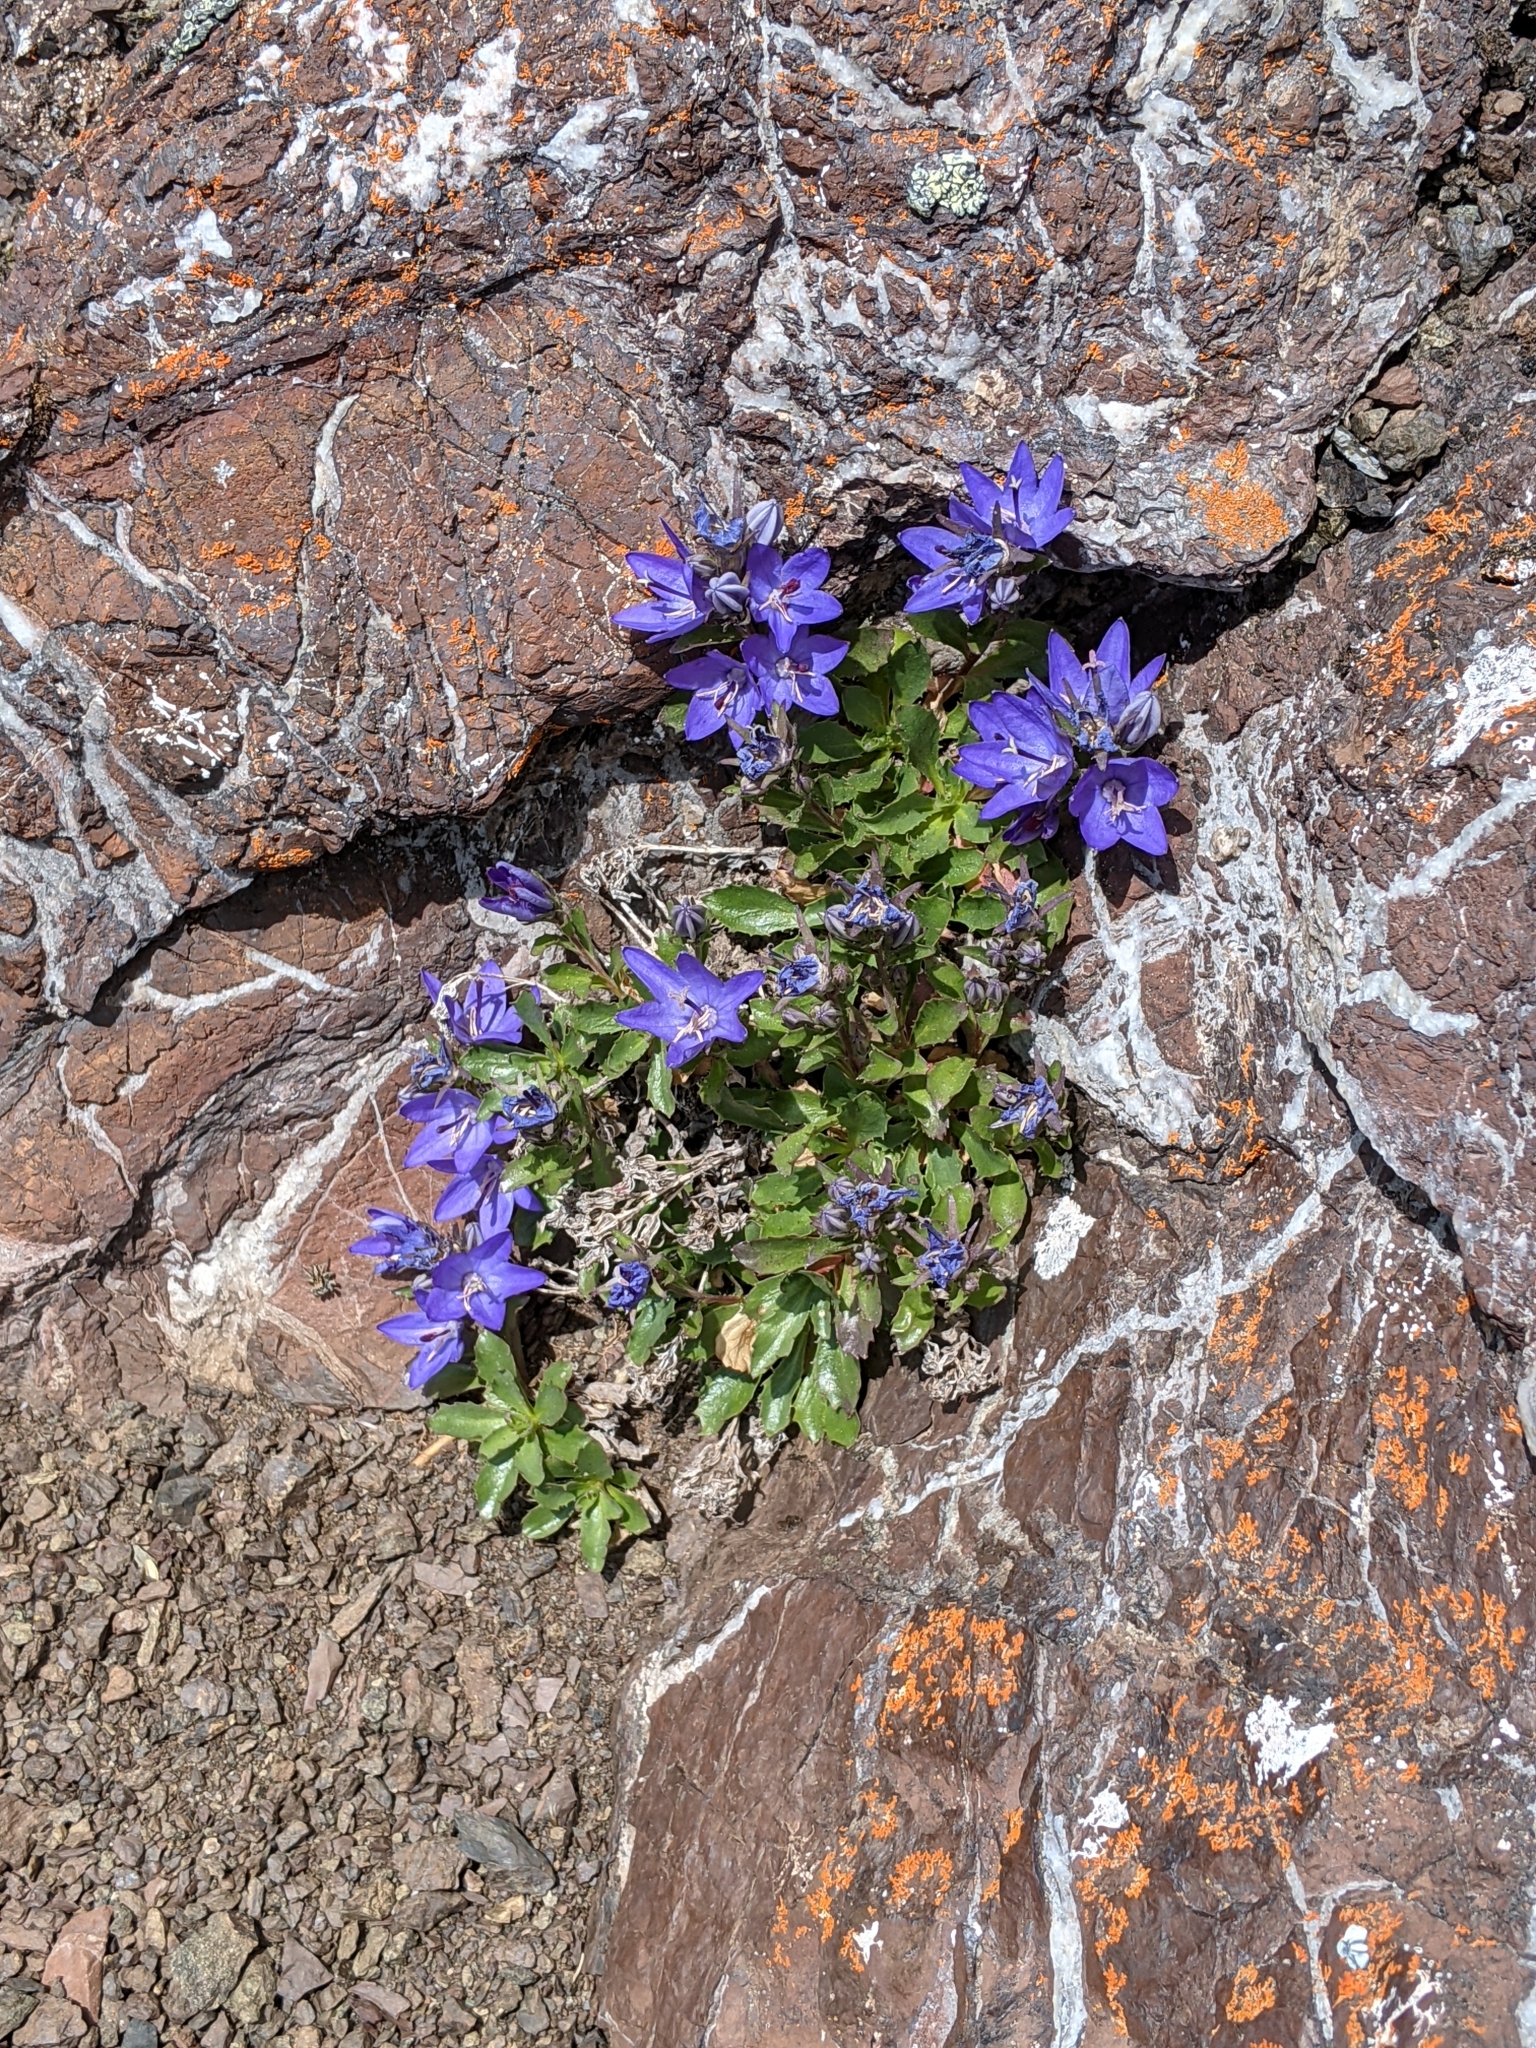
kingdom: Plantae
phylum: Tracheophyta
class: Magnoliopsida
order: Asterales
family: Campanulaceae
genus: Campanula
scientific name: Campanula piperi
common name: Olympic bellflower
